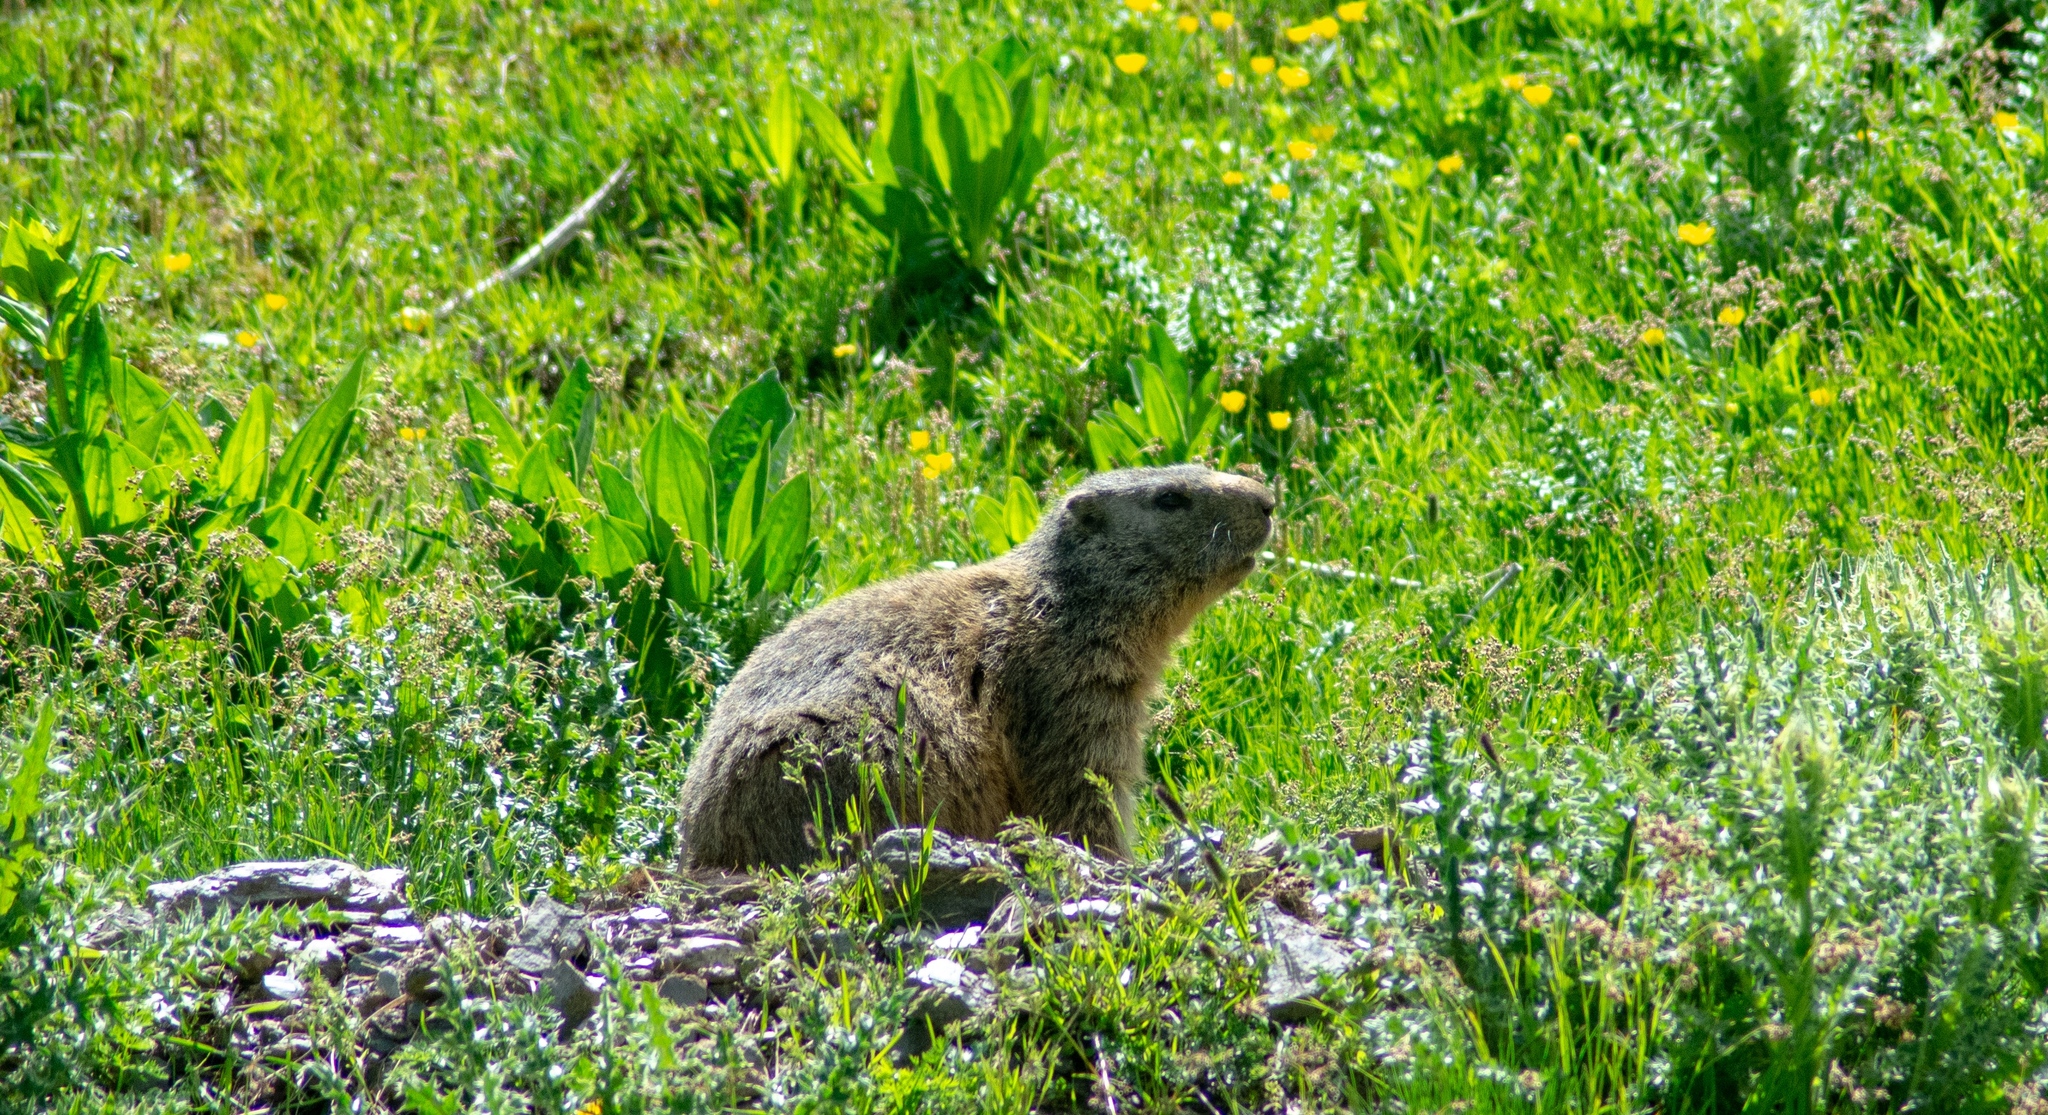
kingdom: Animalia
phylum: Chordata
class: Mammalia
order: Rodentia
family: Sciuridae
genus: Marmota
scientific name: Marmota marmota
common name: Alpine marmot
